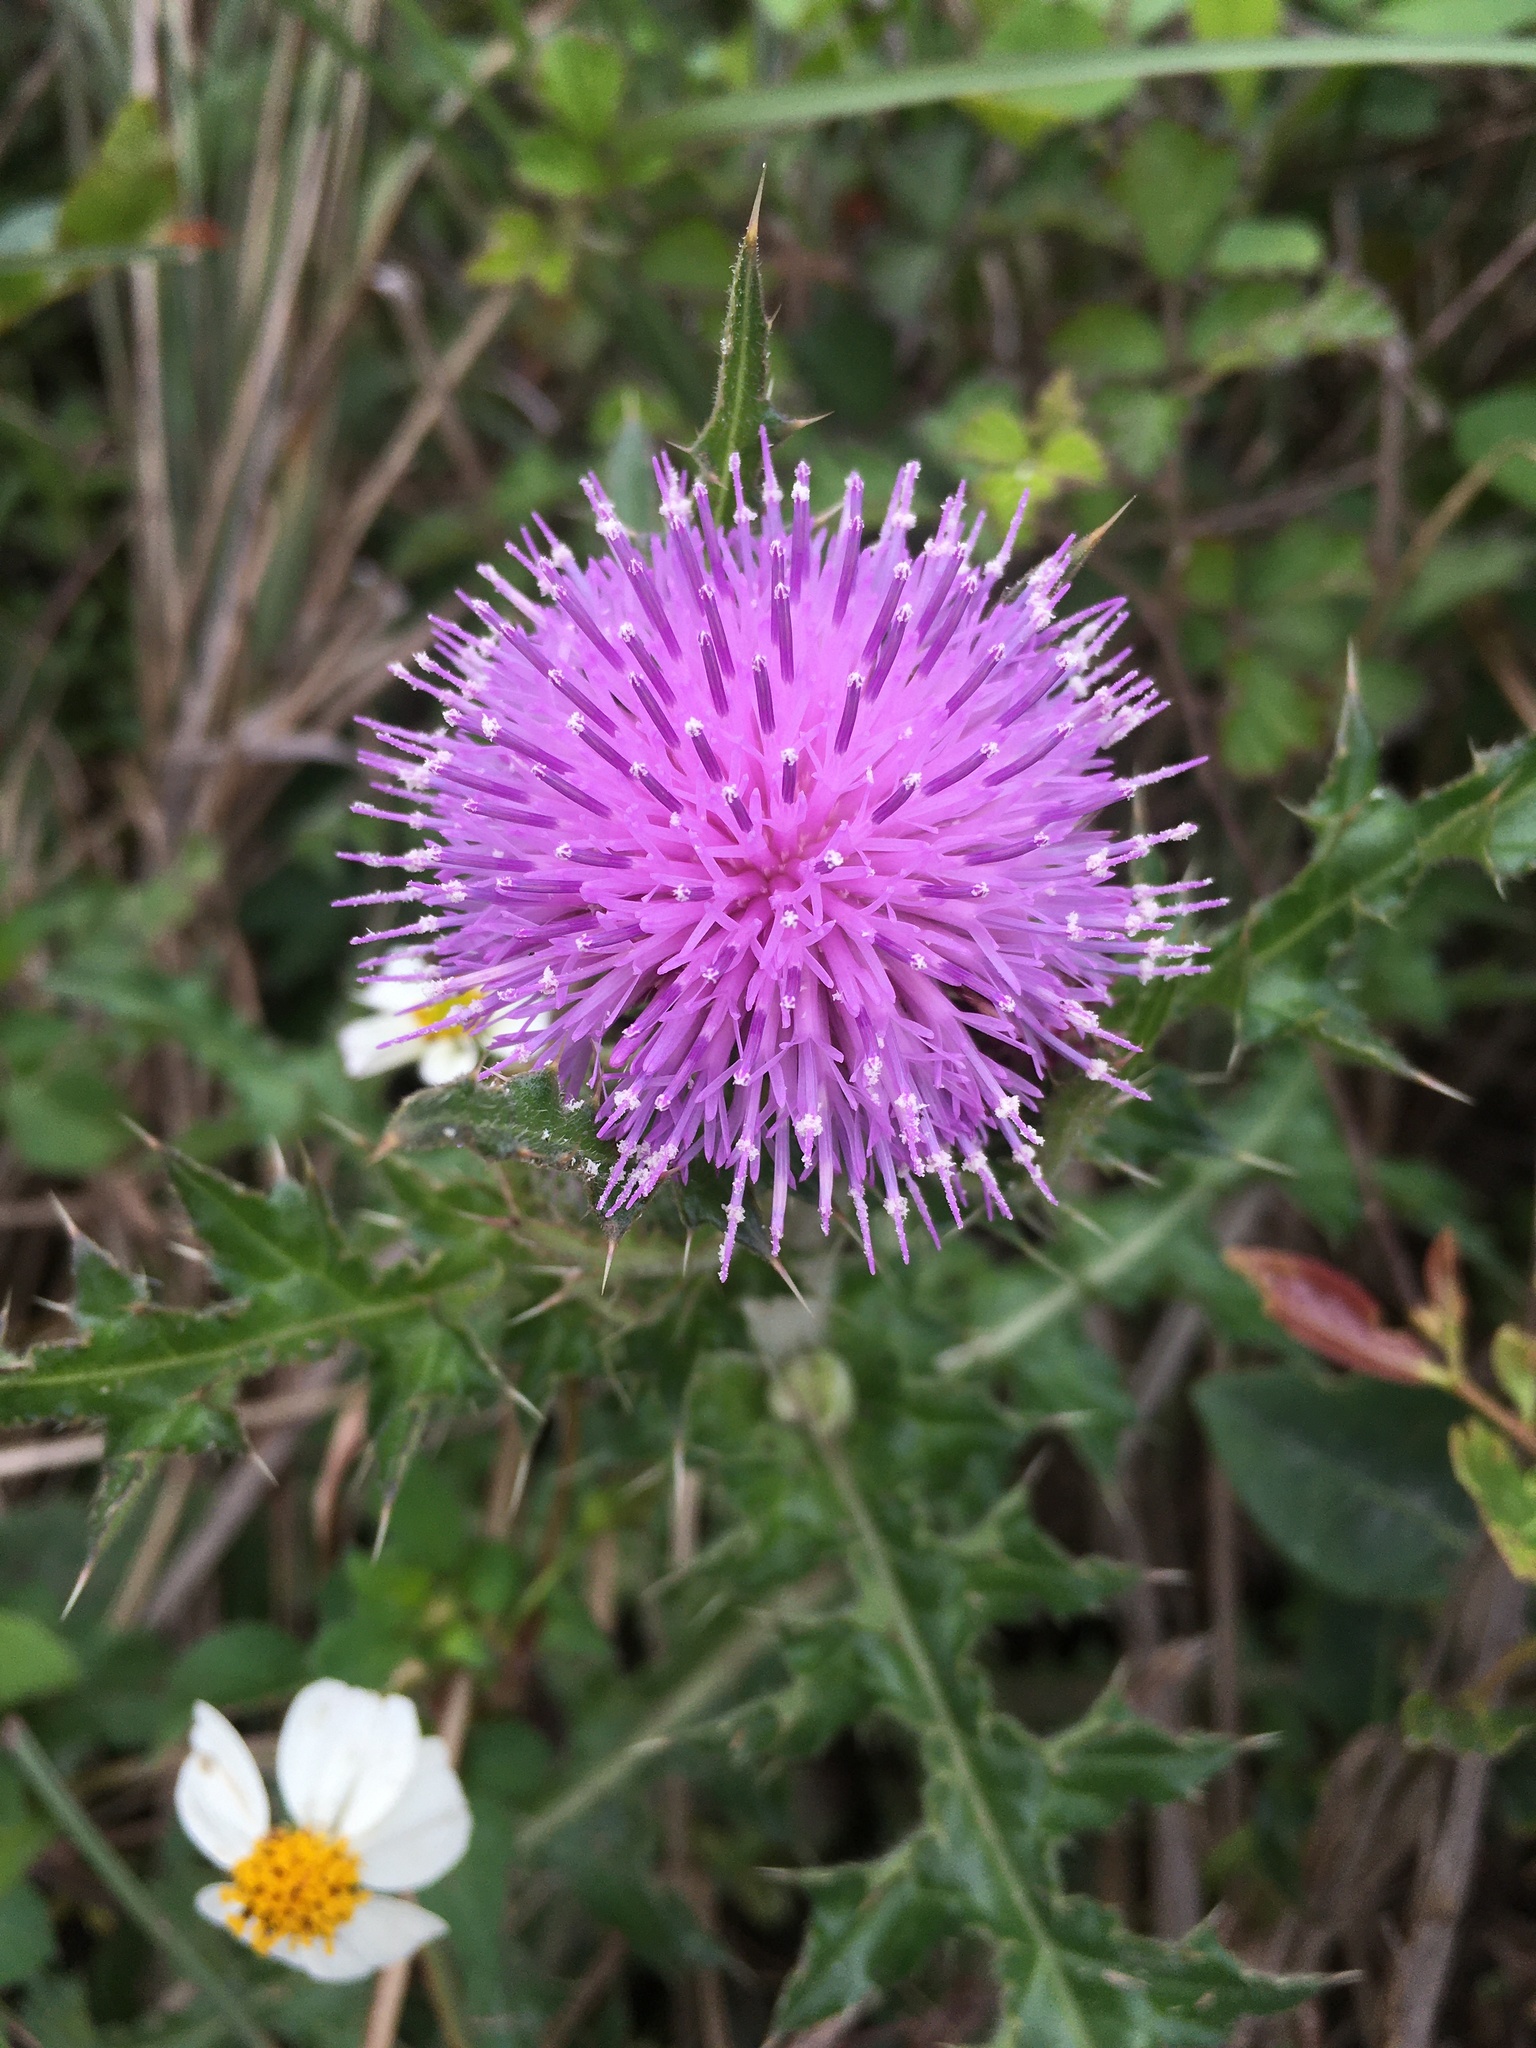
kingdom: Plantae
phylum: Tracheophyta
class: Magnoliopsida
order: Asterales
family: Asteraceae
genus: Cirsium
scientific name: Cirsium japonicum
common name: Japanese thistle
